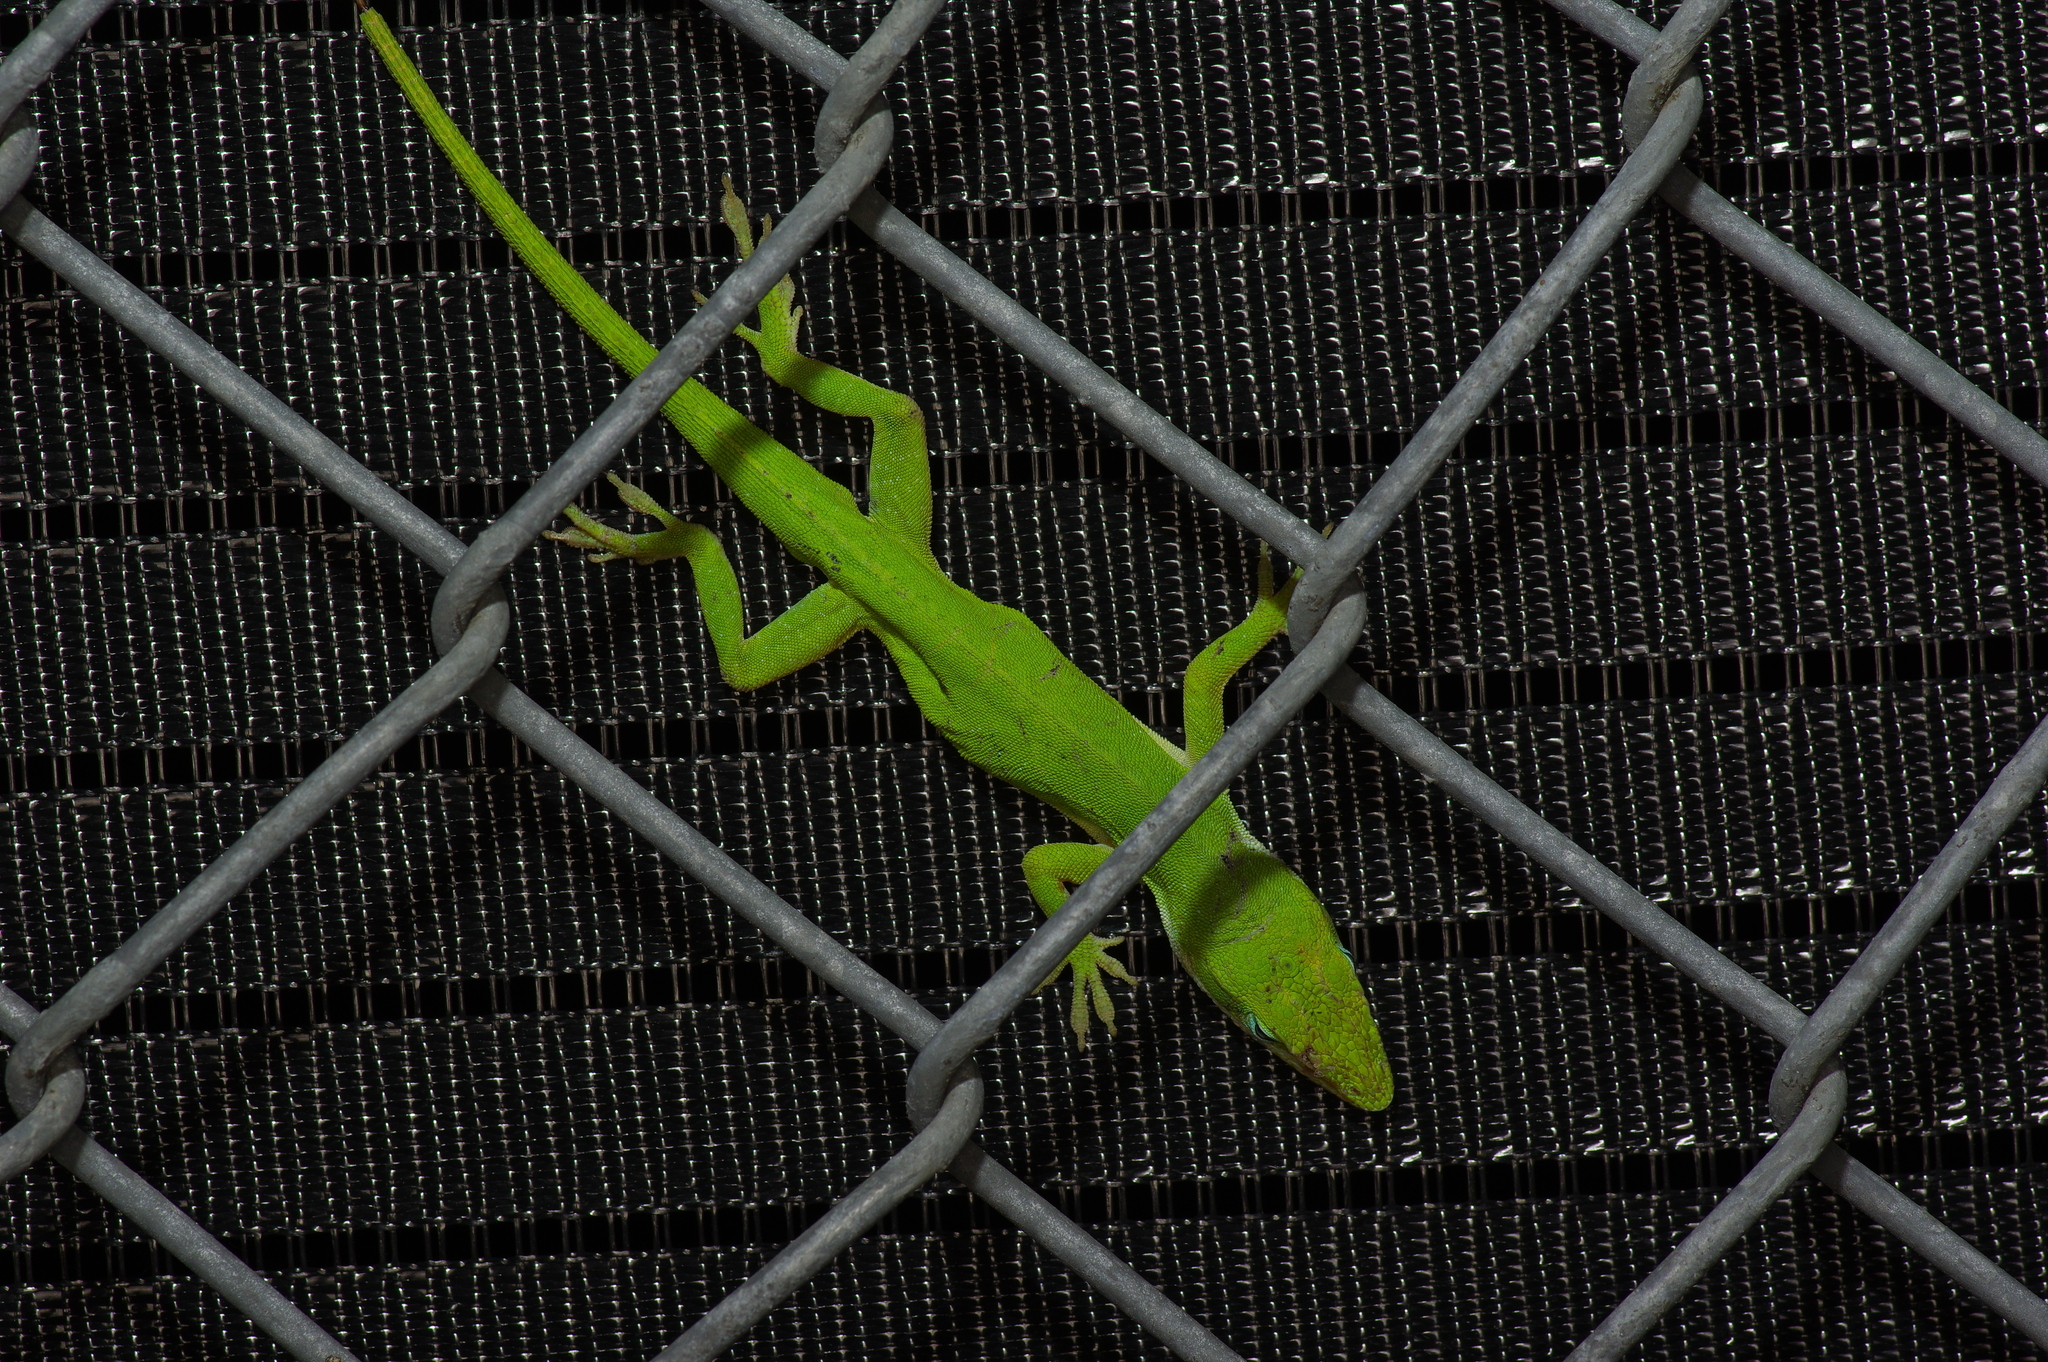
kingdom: Animalia
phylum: Chordata
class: Squamata
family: Dactyloidae
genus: Anolis
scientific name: Anolis carolinensis
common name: Green anole
